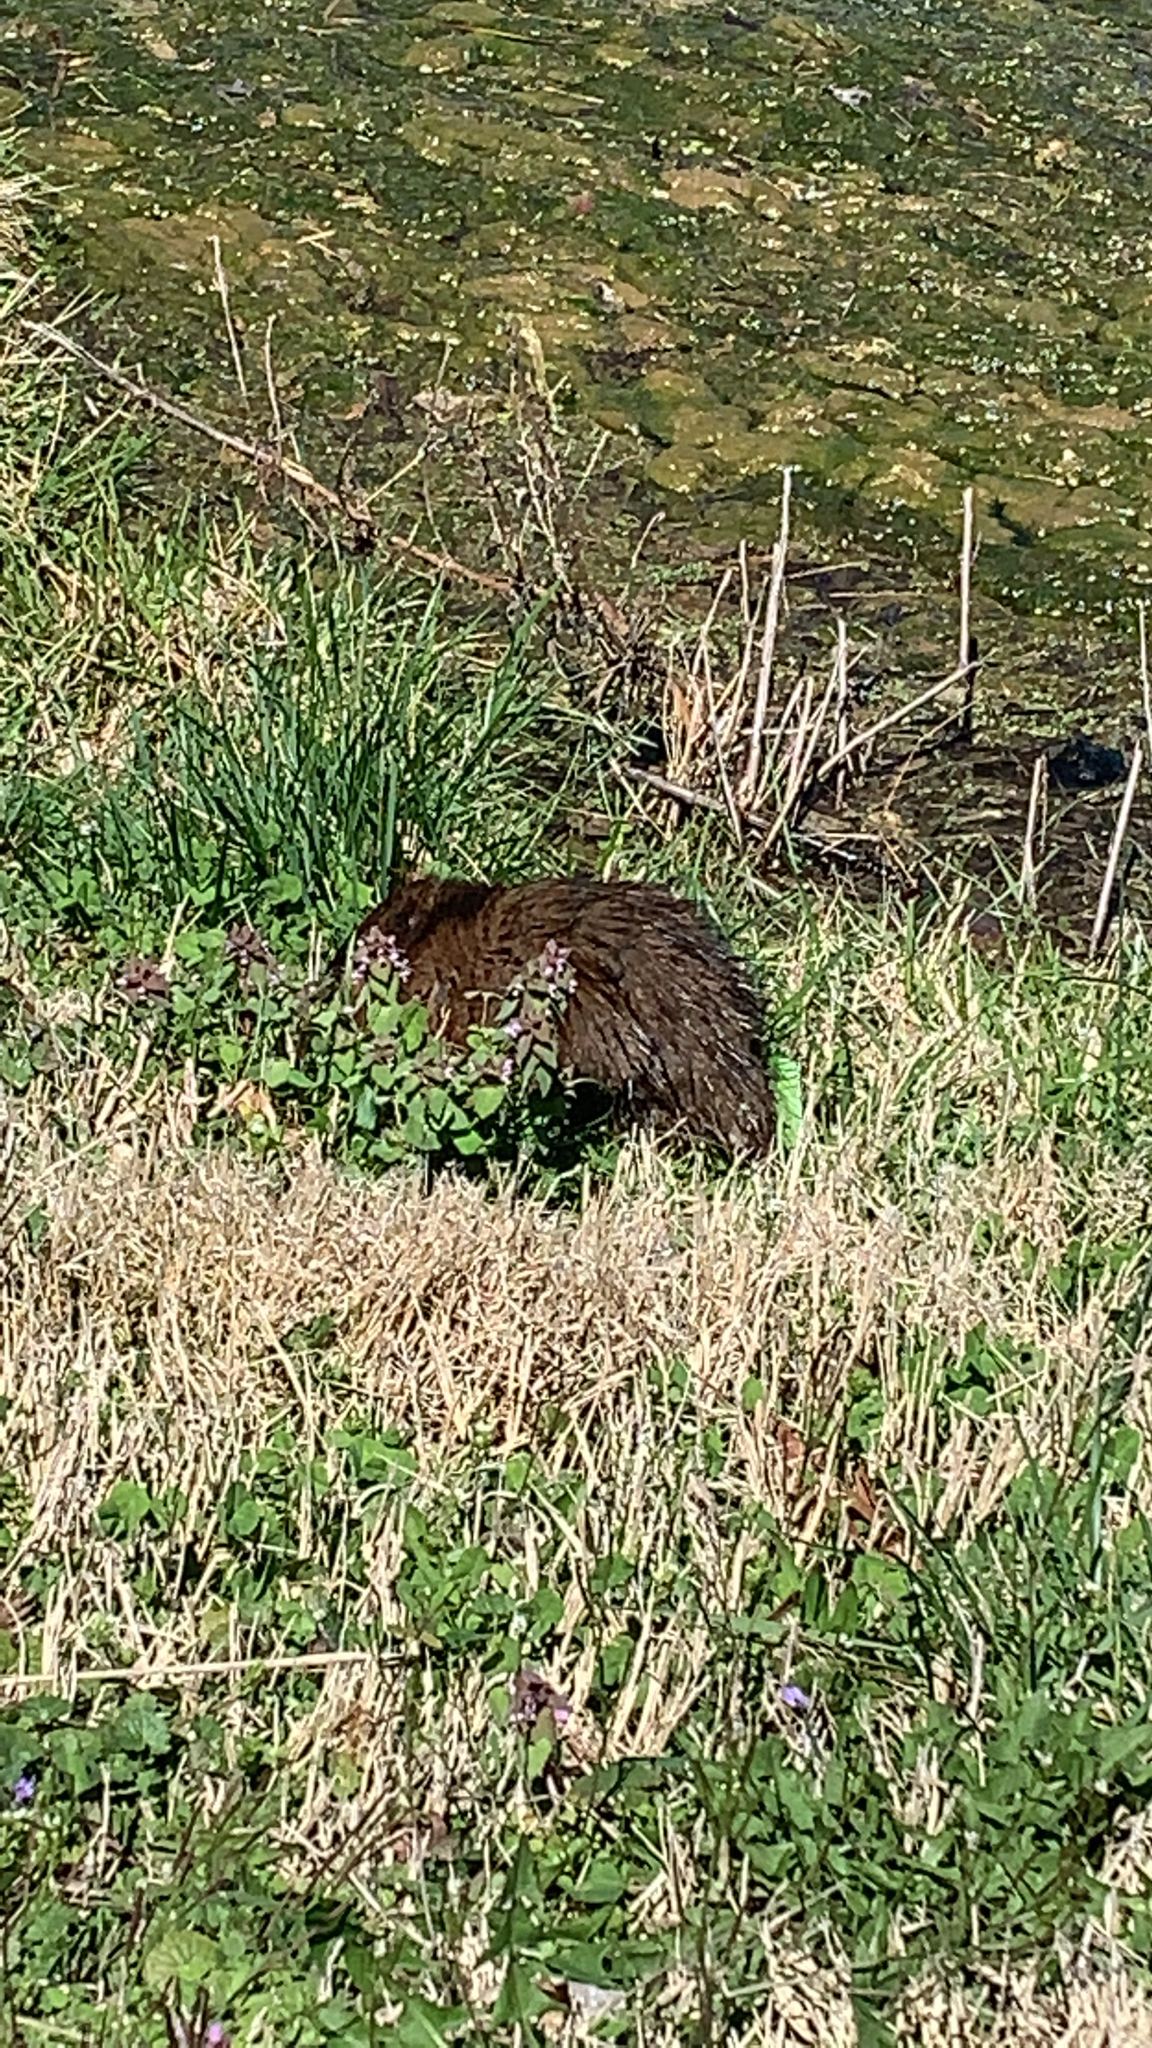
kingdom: Animalia
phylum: Chordata
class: Mammalia
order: Rodentia
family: Cricetidae
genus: Ondatra
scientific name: Ondatra zibethicus
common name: Muskrat
